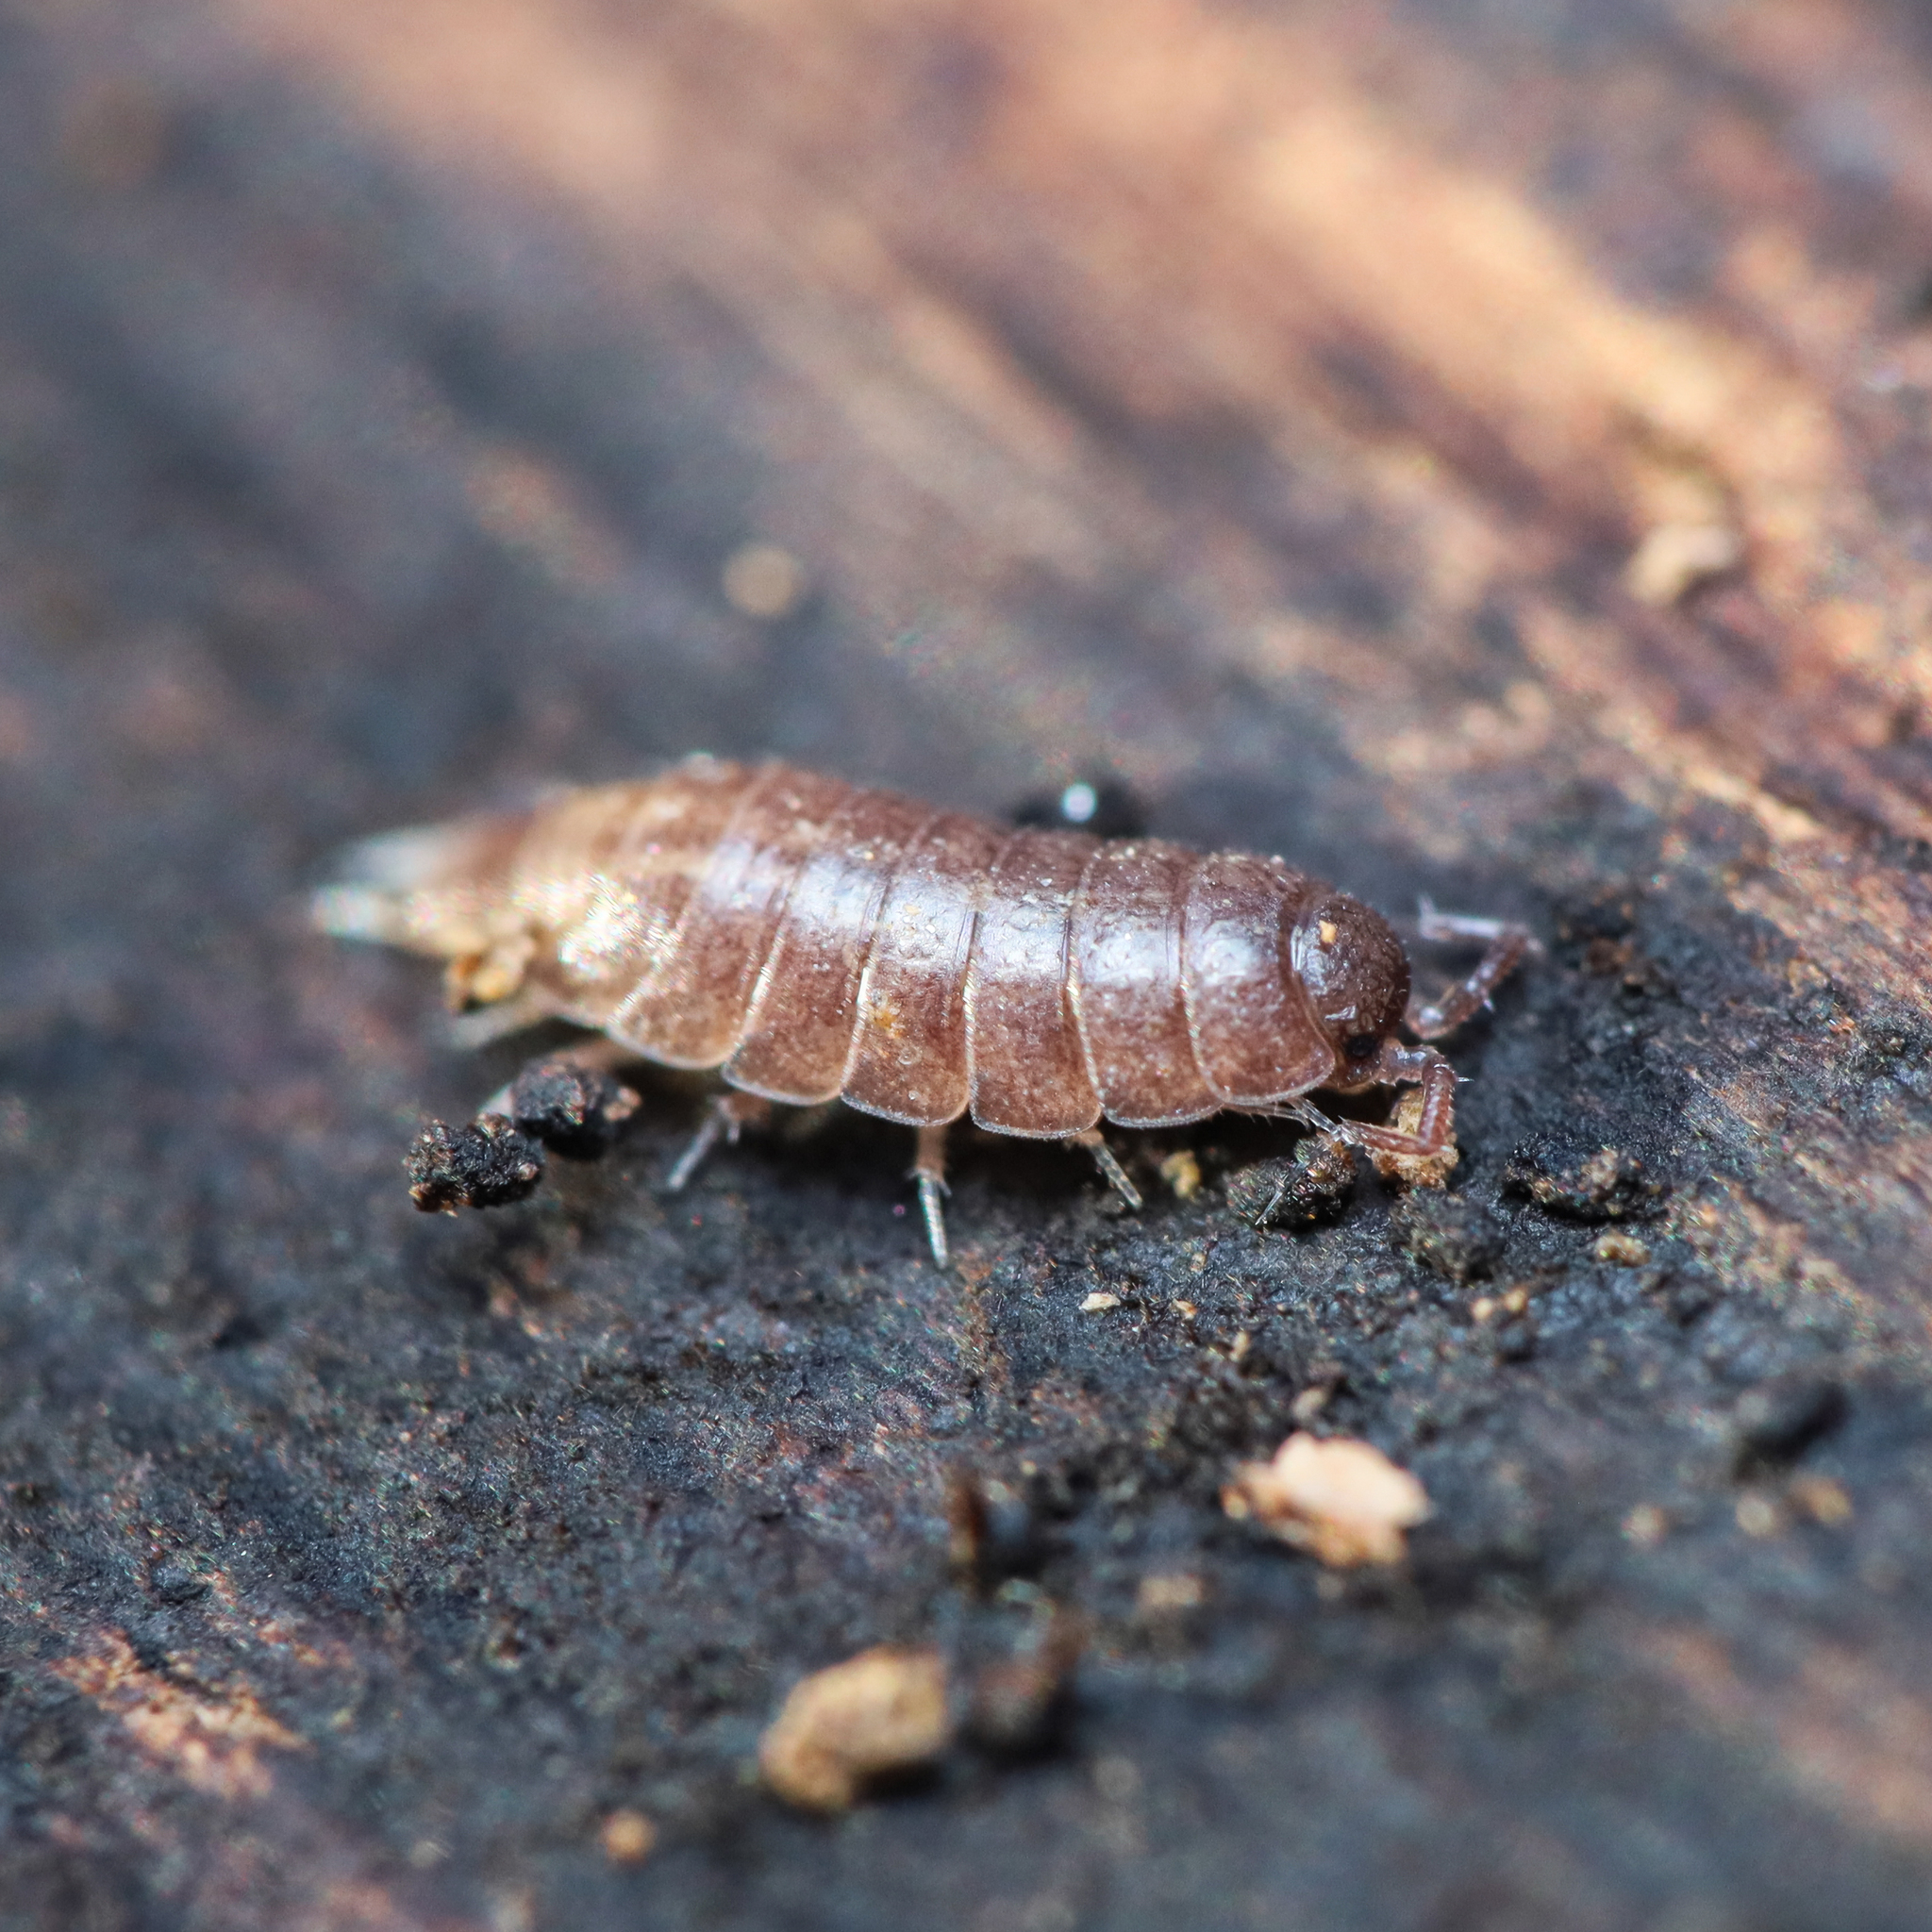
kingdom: Animalia
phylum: Arthropoda
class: Malacostraca
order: Isopoda
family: Trichoniscidae
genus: Hyloniscus
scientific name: Hyloniscus riparius
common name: Isopod
